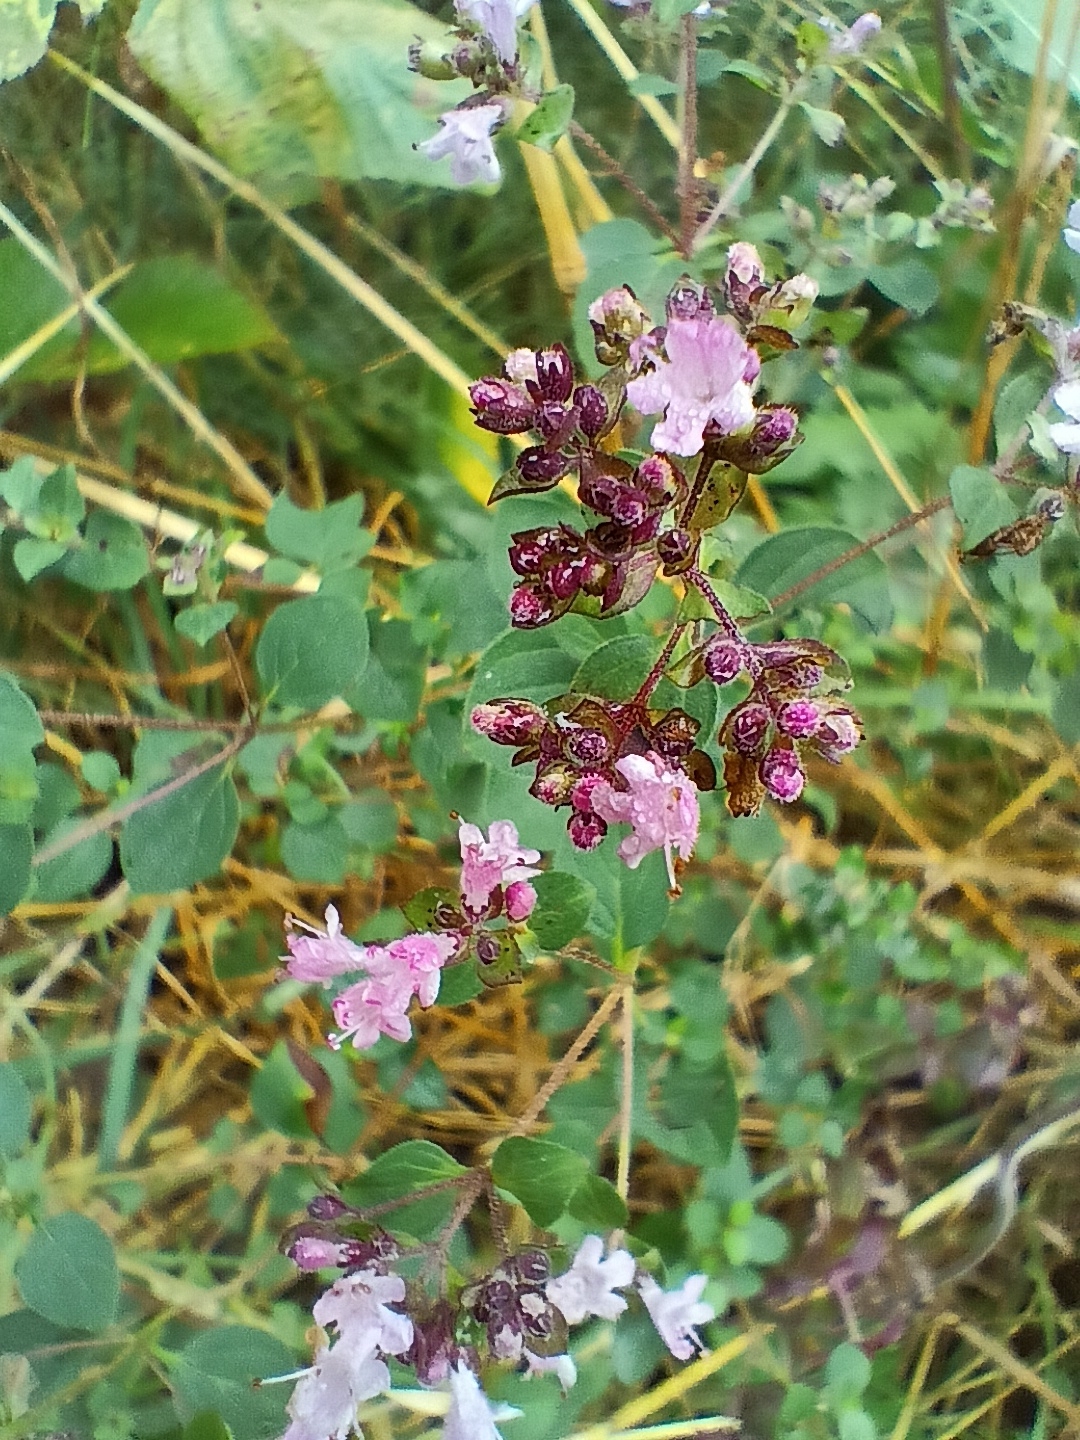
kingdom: Plantae
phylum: Tracheophyta
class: Magnoliopsida
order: Lamiales
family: Lamiaceae
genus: Origanum
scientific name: Origanum vulgare
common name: Wild marjoram
